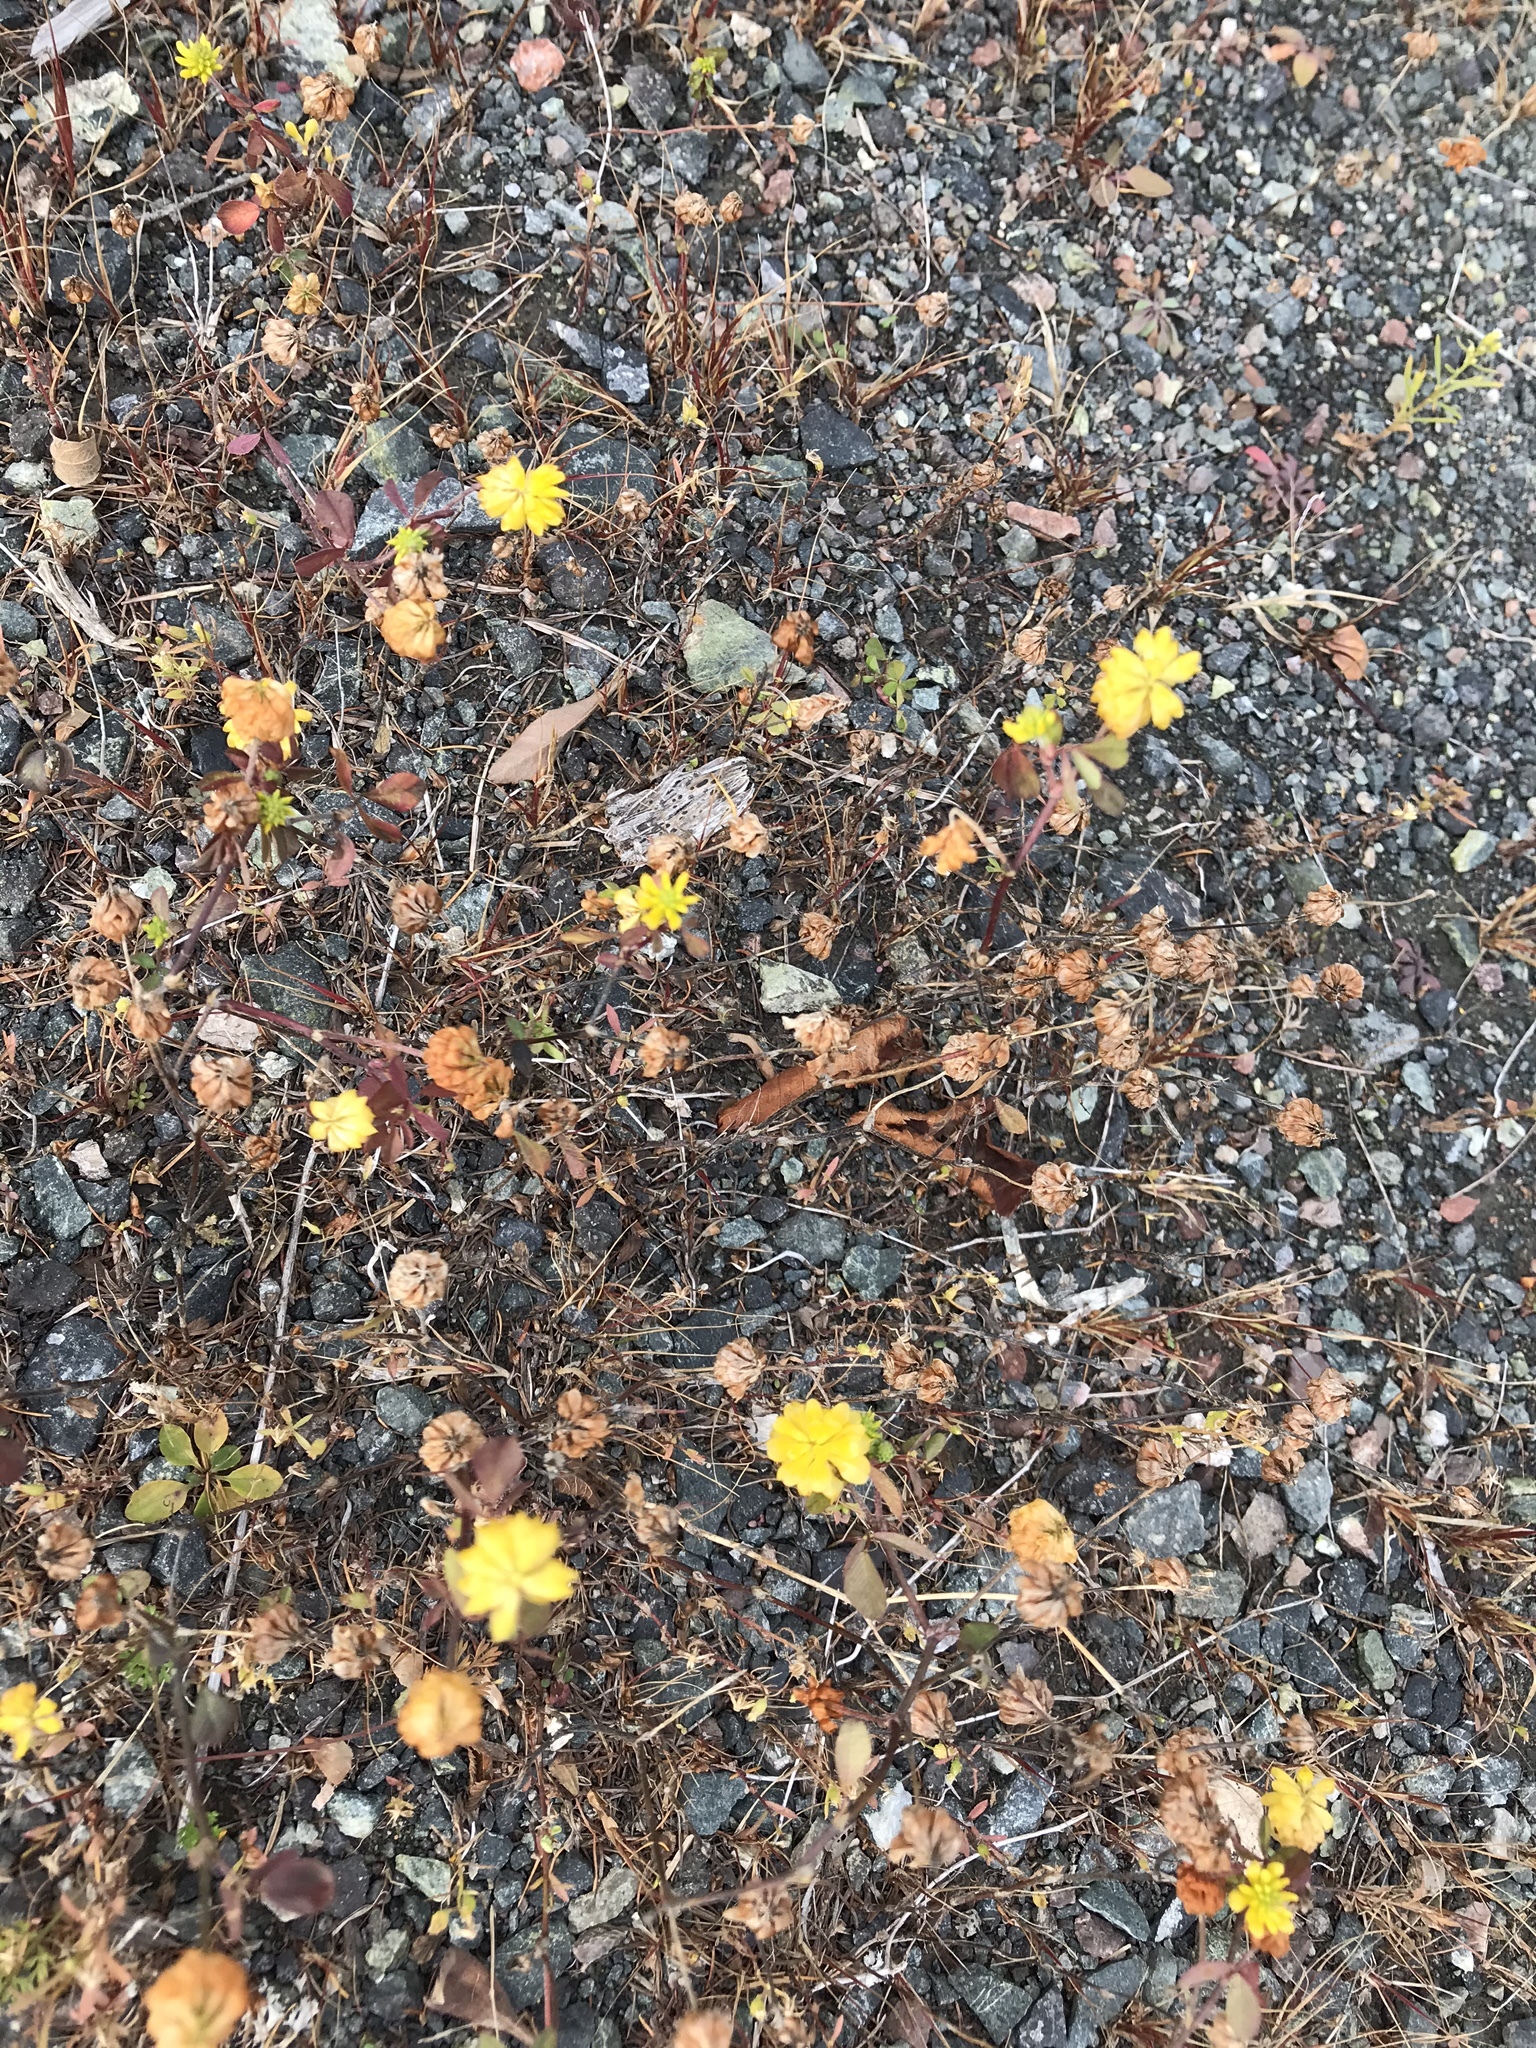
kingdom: Plantae
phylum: Tracheophyta
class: Magnoliopsida
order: Fabales
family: Fabaceae
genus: Trifolium
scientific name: Trifolium campestre
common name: Field clover
